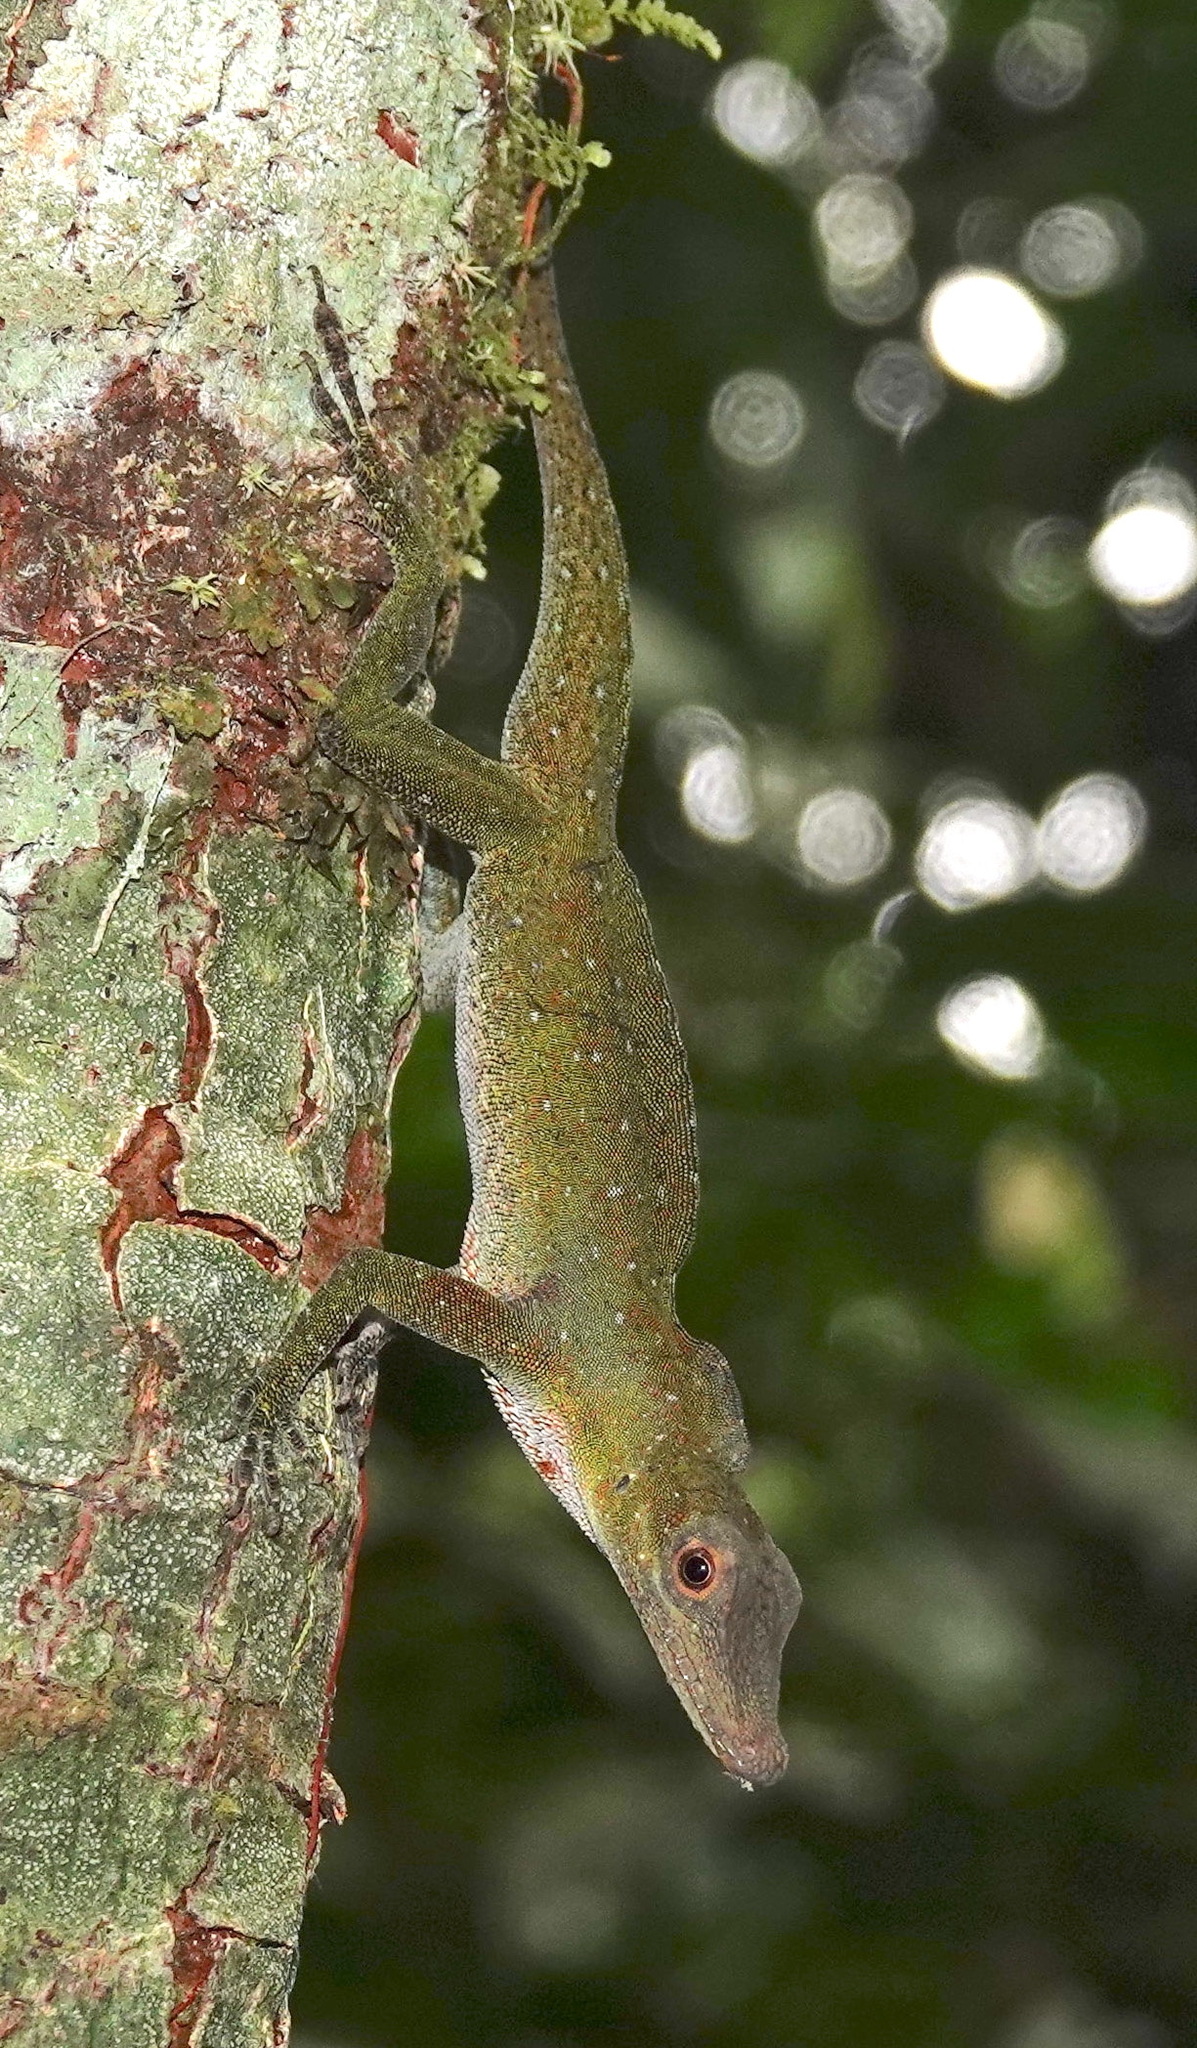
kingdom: Animalia
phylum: Chordata
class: Squamata
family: Dactyloidae
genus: Anolis
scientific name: Anolis punctatus
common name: Amazon green anole
